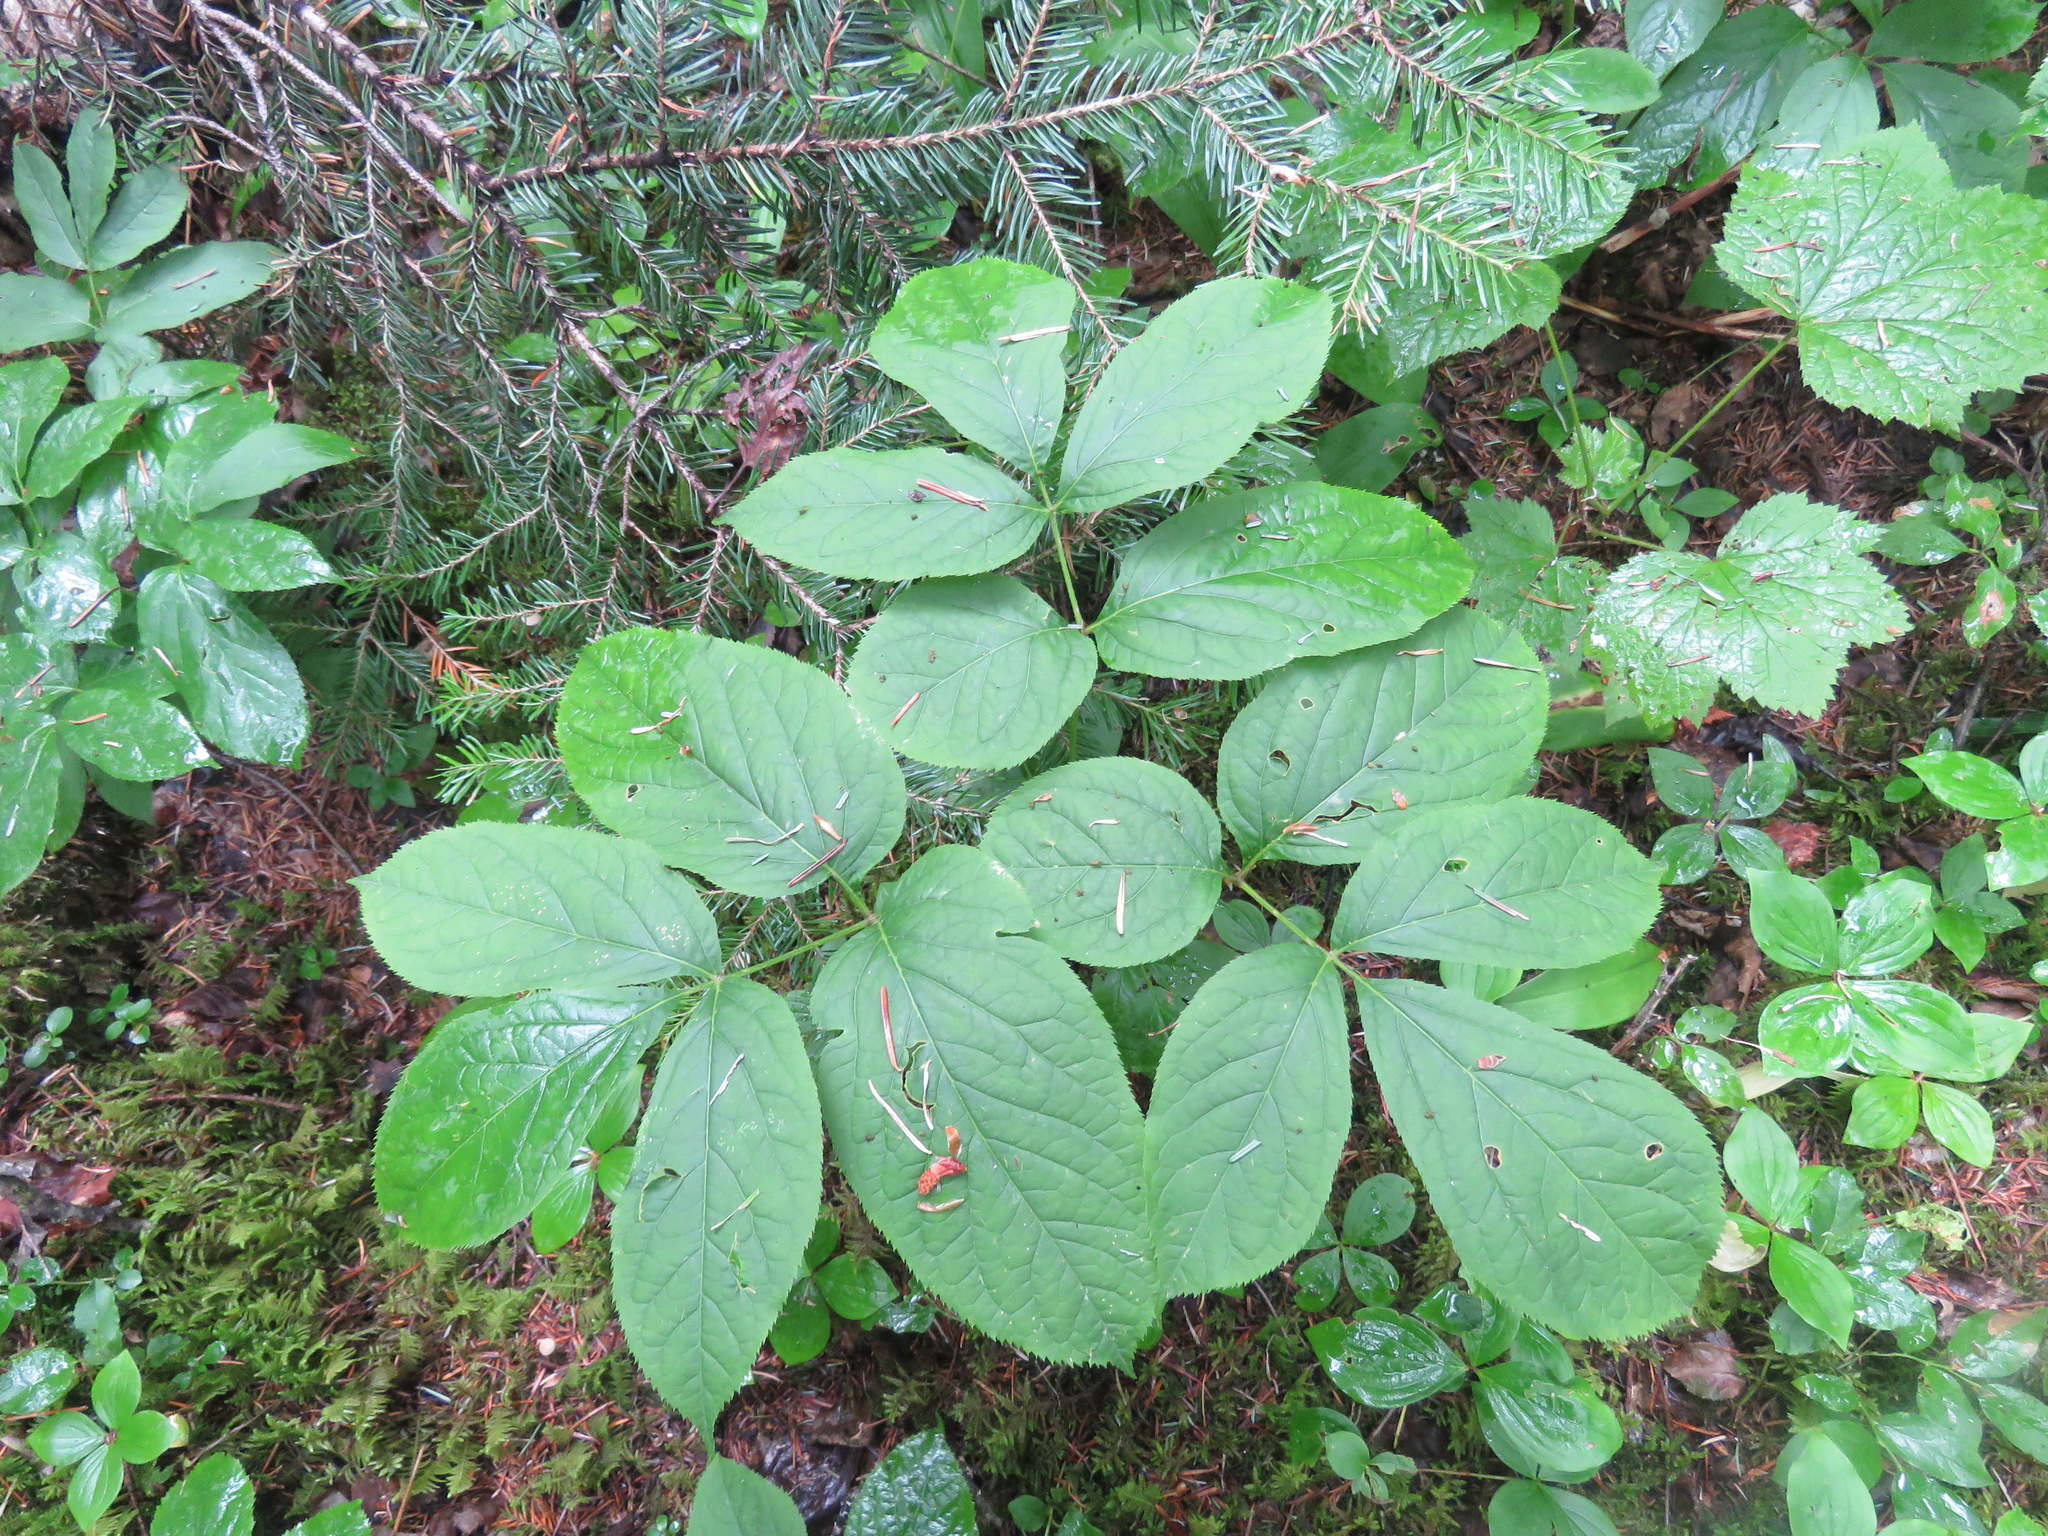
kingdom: Plantae
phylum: Tracheophyta
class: Magnoliopsida
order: Apiales
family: Araliaceae
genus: Aralia
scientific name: Aralia nudicaulis
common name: Wild sarsaparilla
